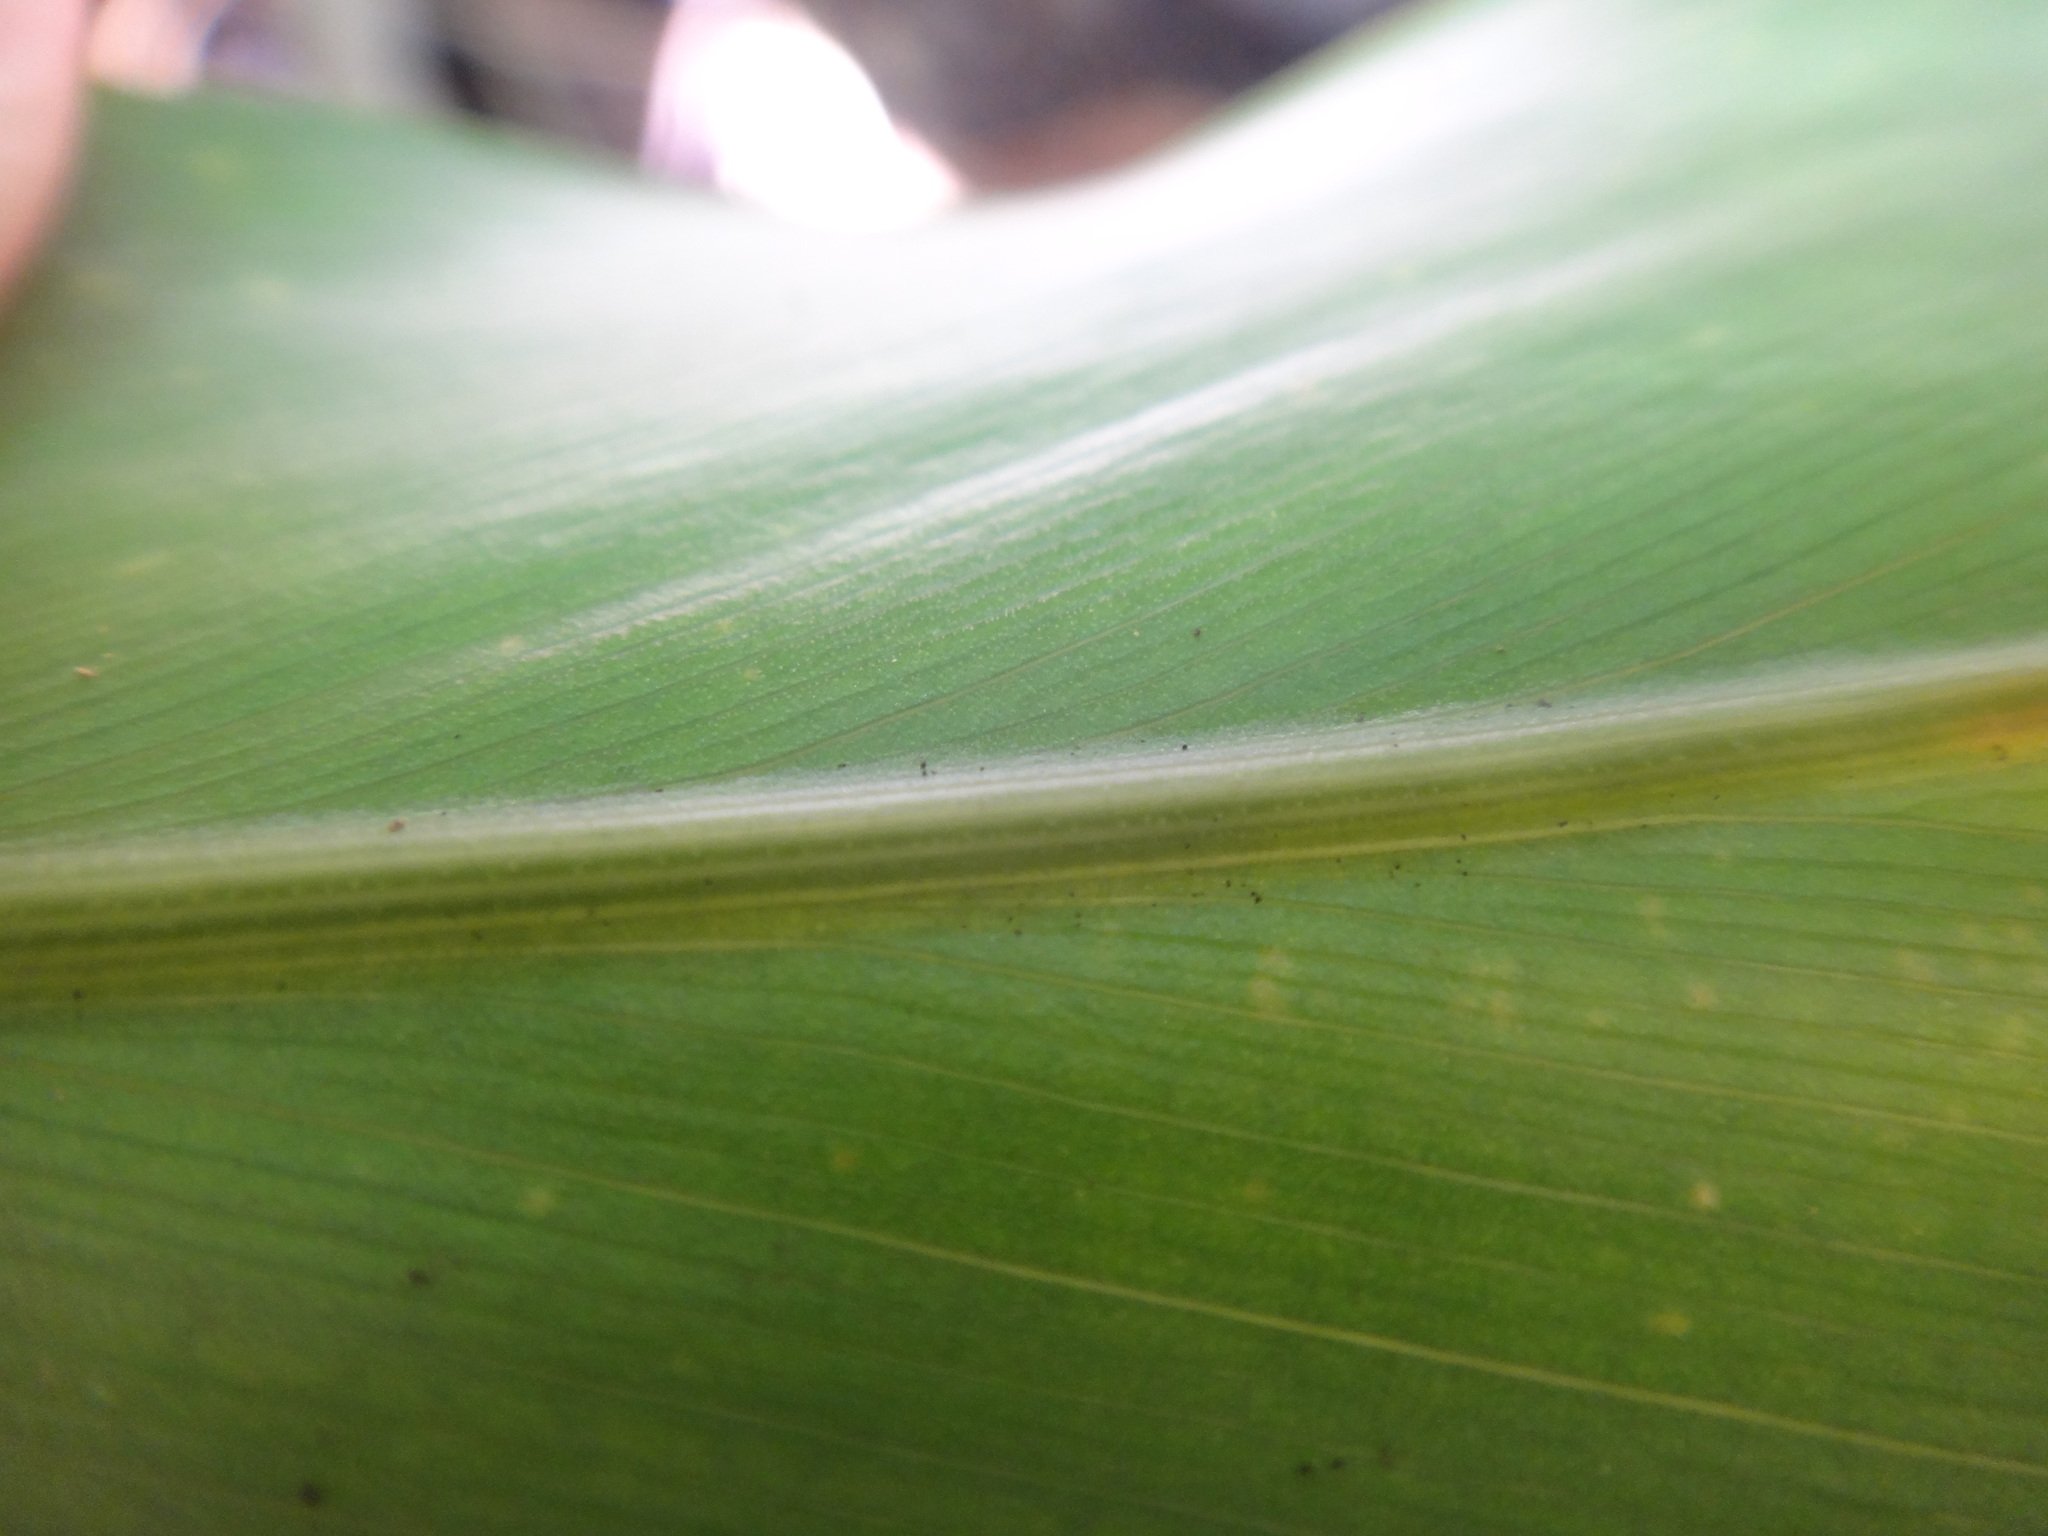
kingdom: Plantae
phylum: Tracheophyta
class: Liliopsida
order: Zingiberales
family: Zingiberaceae
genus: Alpinia
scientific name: Alpinia intermedia
